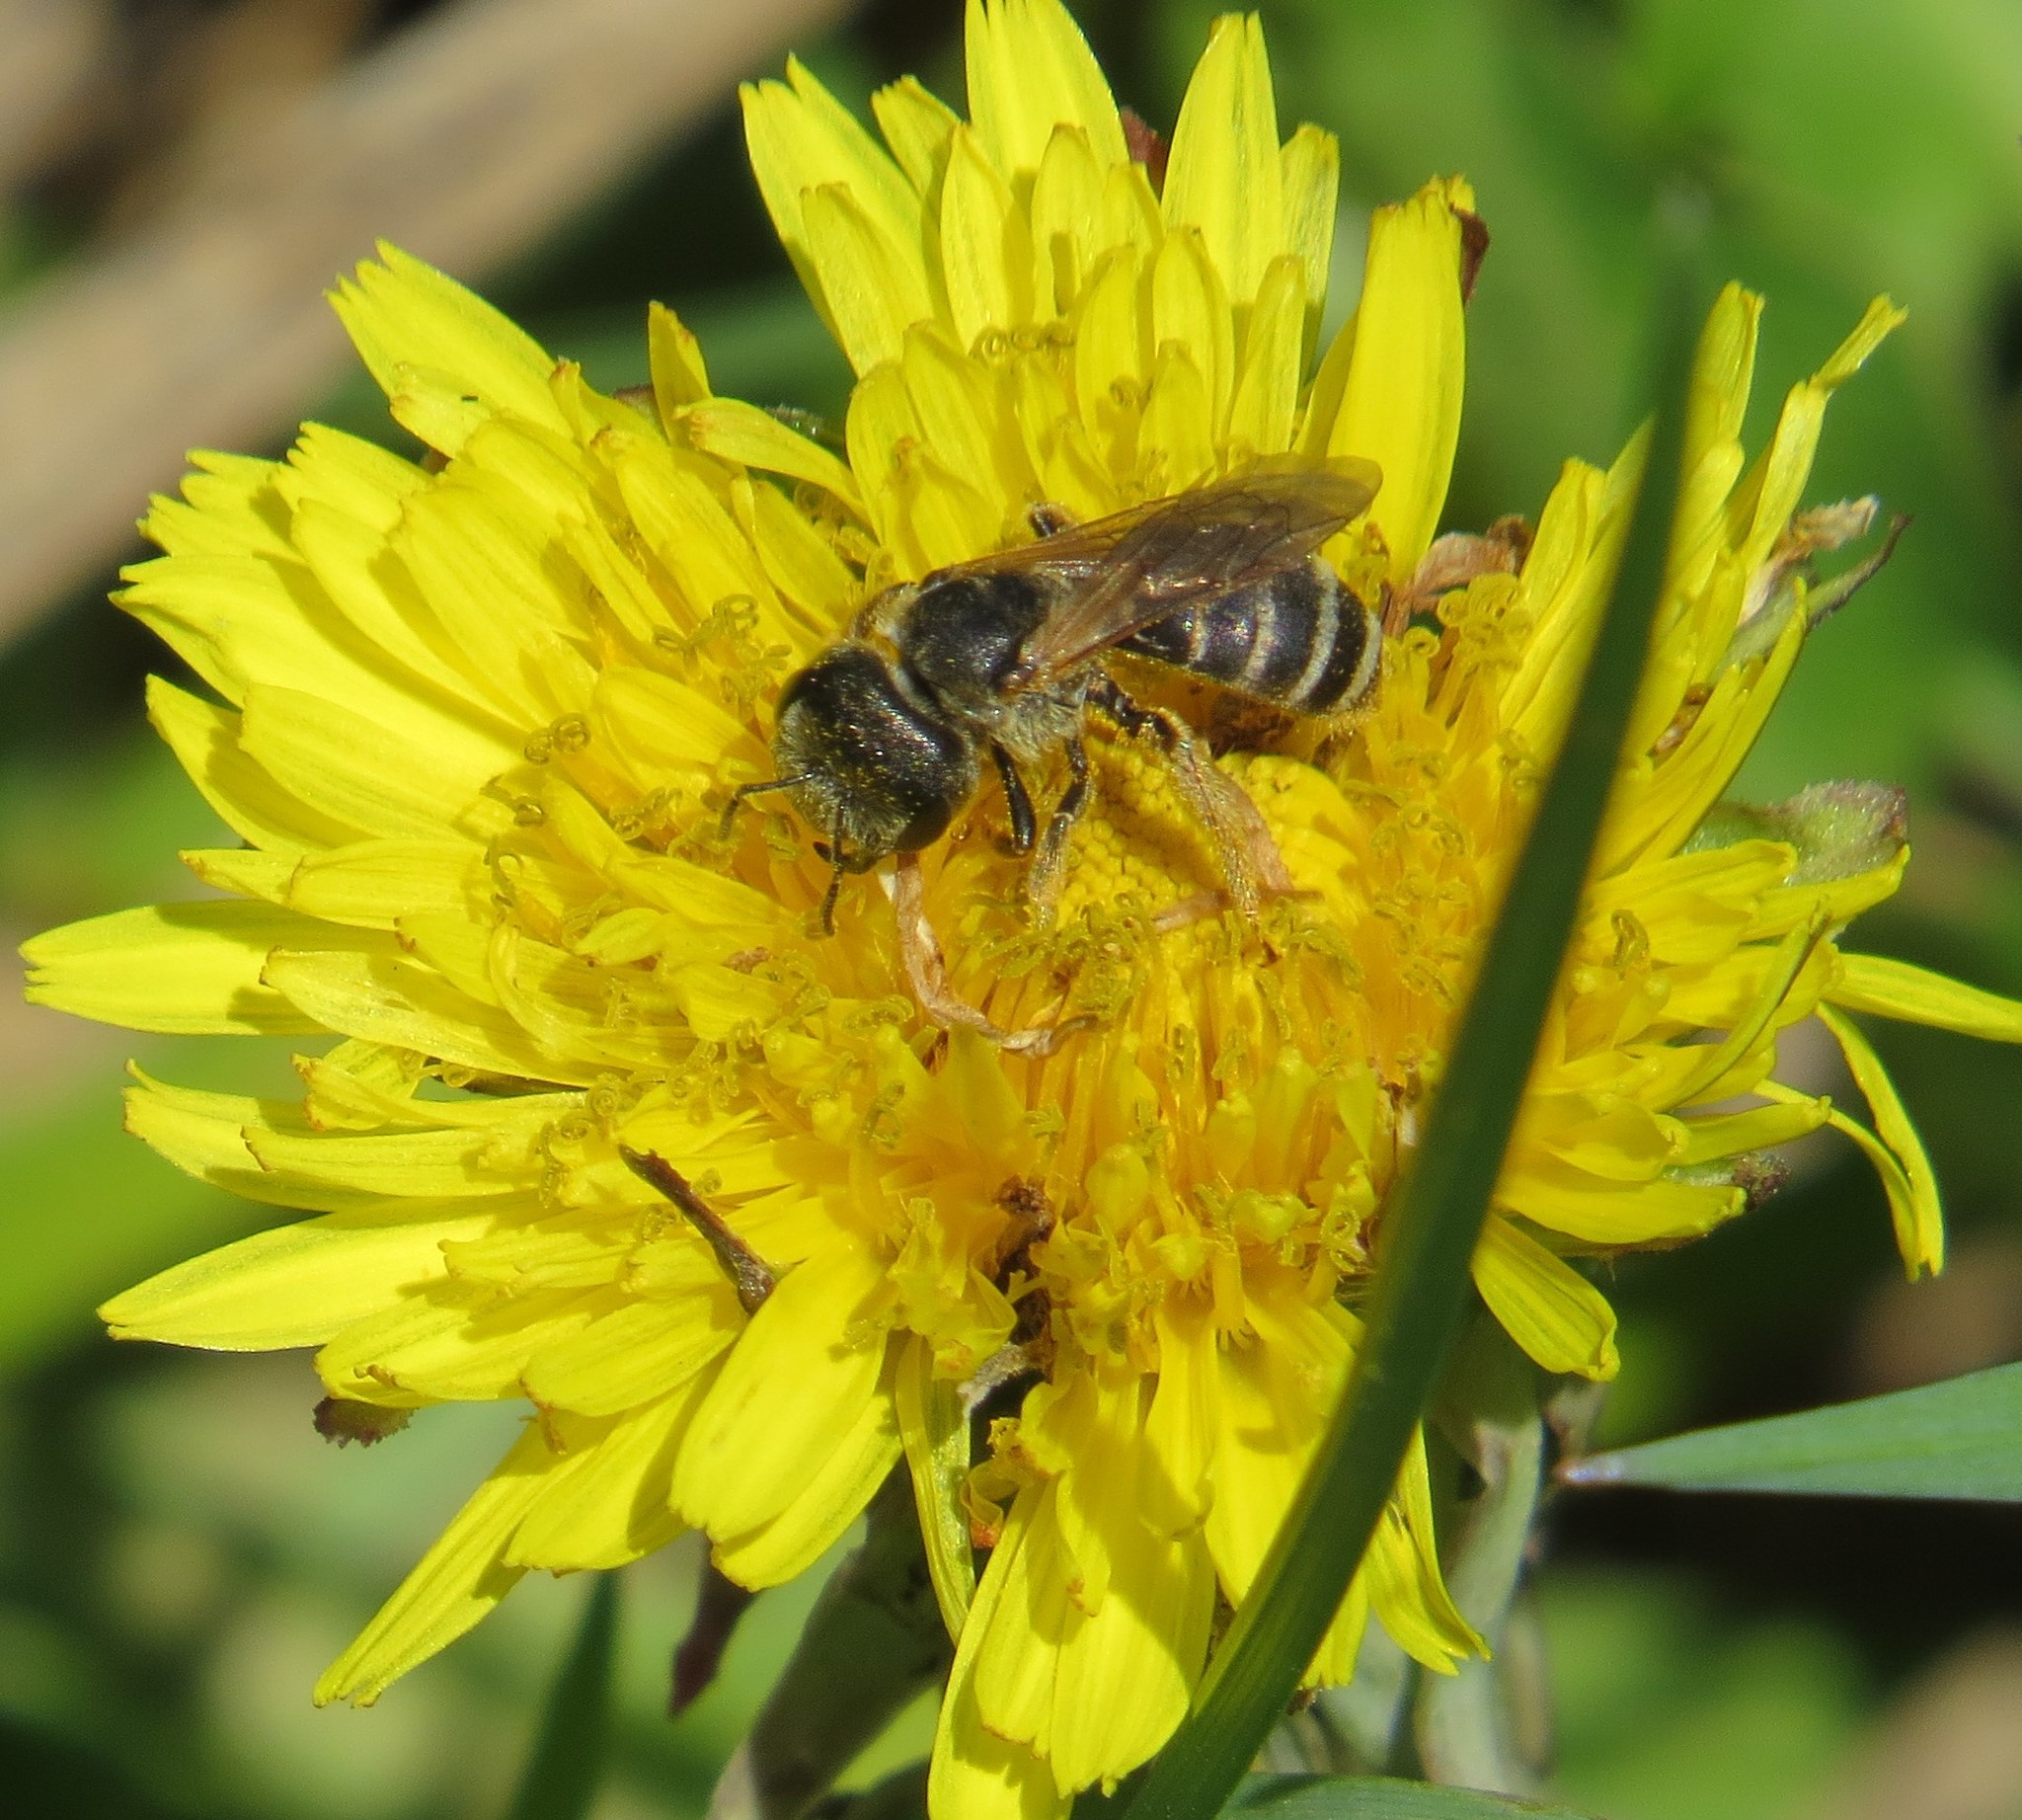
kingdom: Animalia
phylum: Arthropoda
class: Insecta
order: Hymenoptera
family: Halictidae
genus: Halictus
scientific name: Halictus ligatus
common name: Ligated furrow bee
